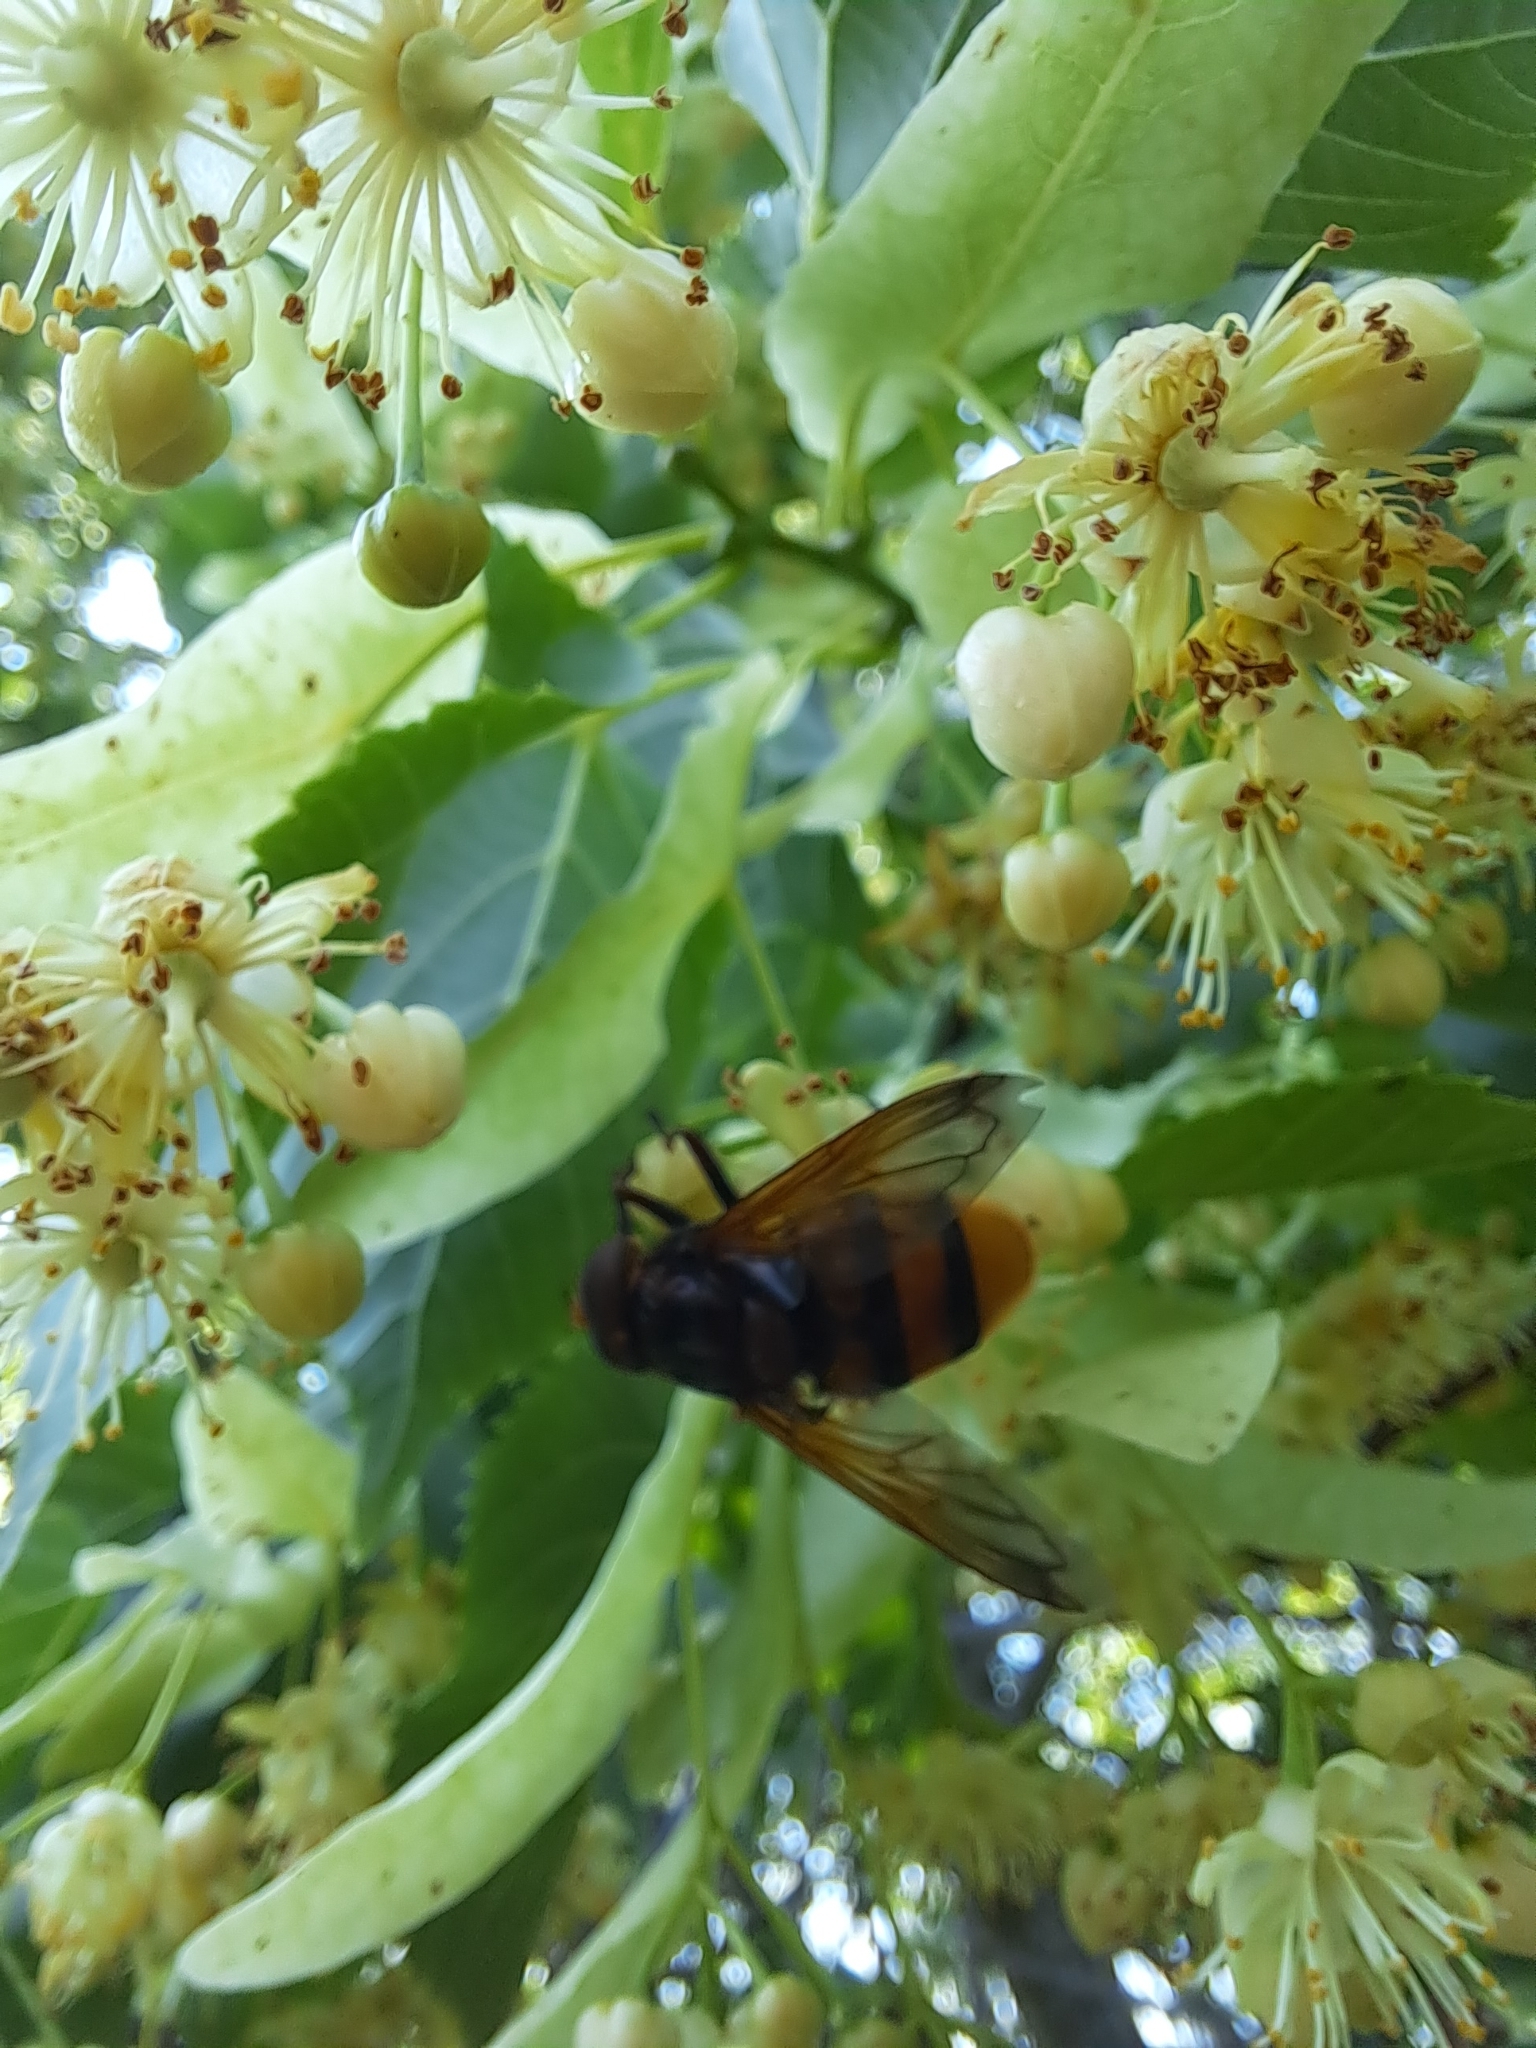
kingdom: Animalia
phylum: Arthropoda
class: Insecta
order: Diptera
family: Syrphidae
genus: Volucella
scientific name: Volucella zonaria
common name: Hornet hoverfly
